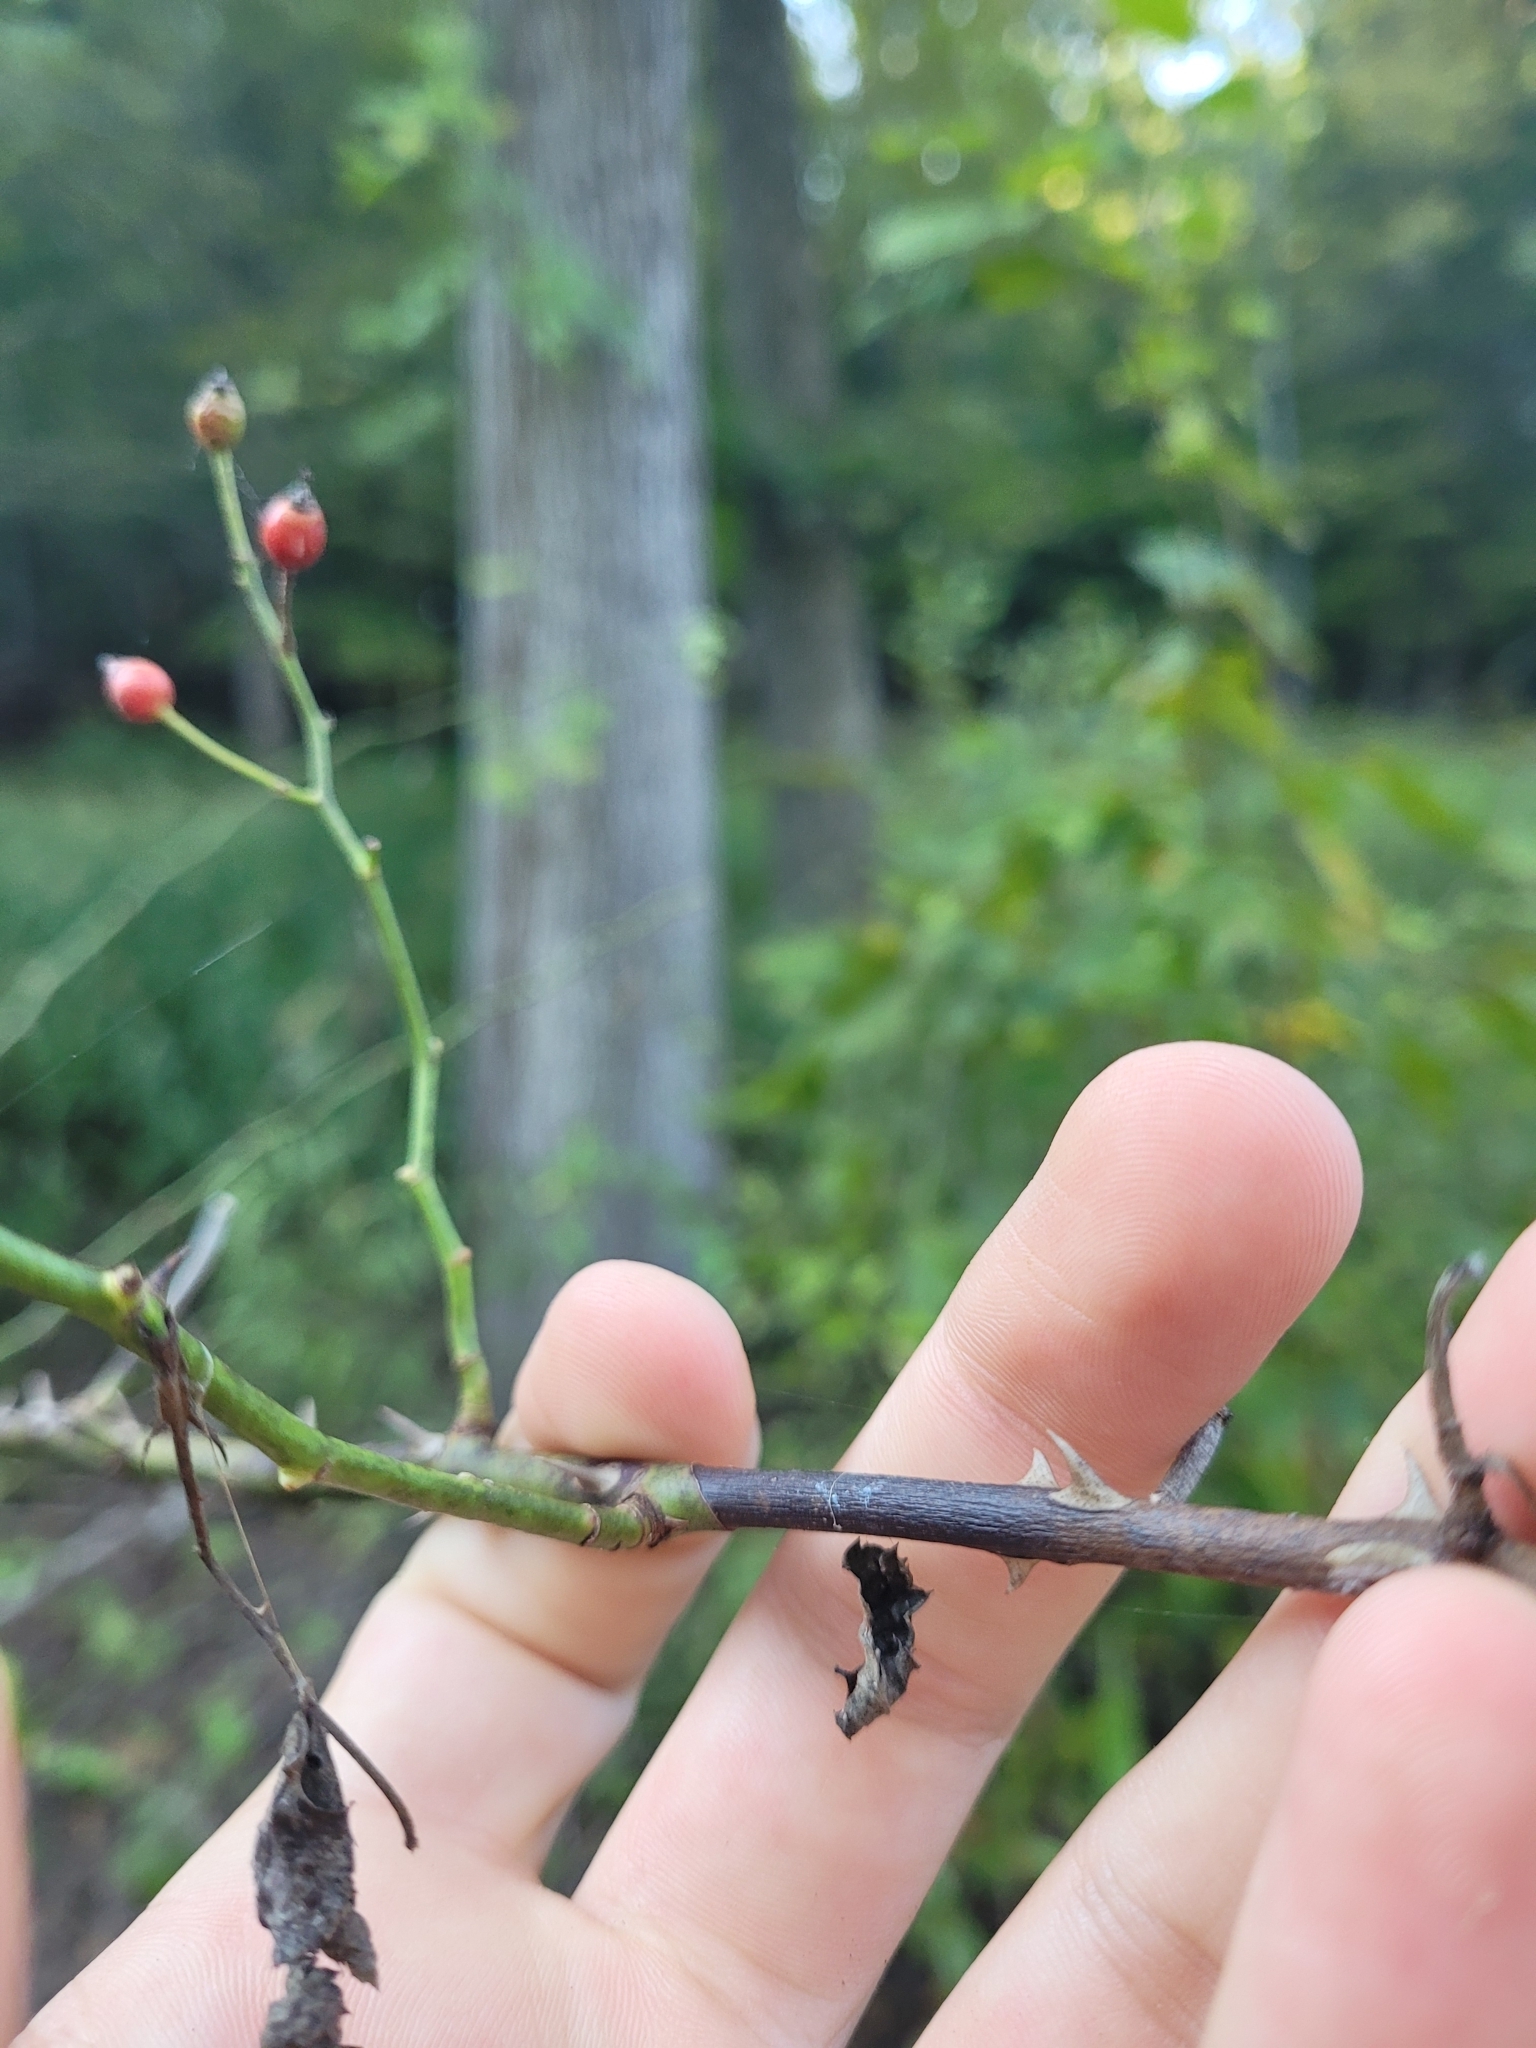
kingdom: Plantae
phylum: Tracheophyta
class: Magnoliopsida
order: Rosales
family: Rosaceae
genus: Rosa
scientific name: Rosa multiflora
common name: Multiflora rose
